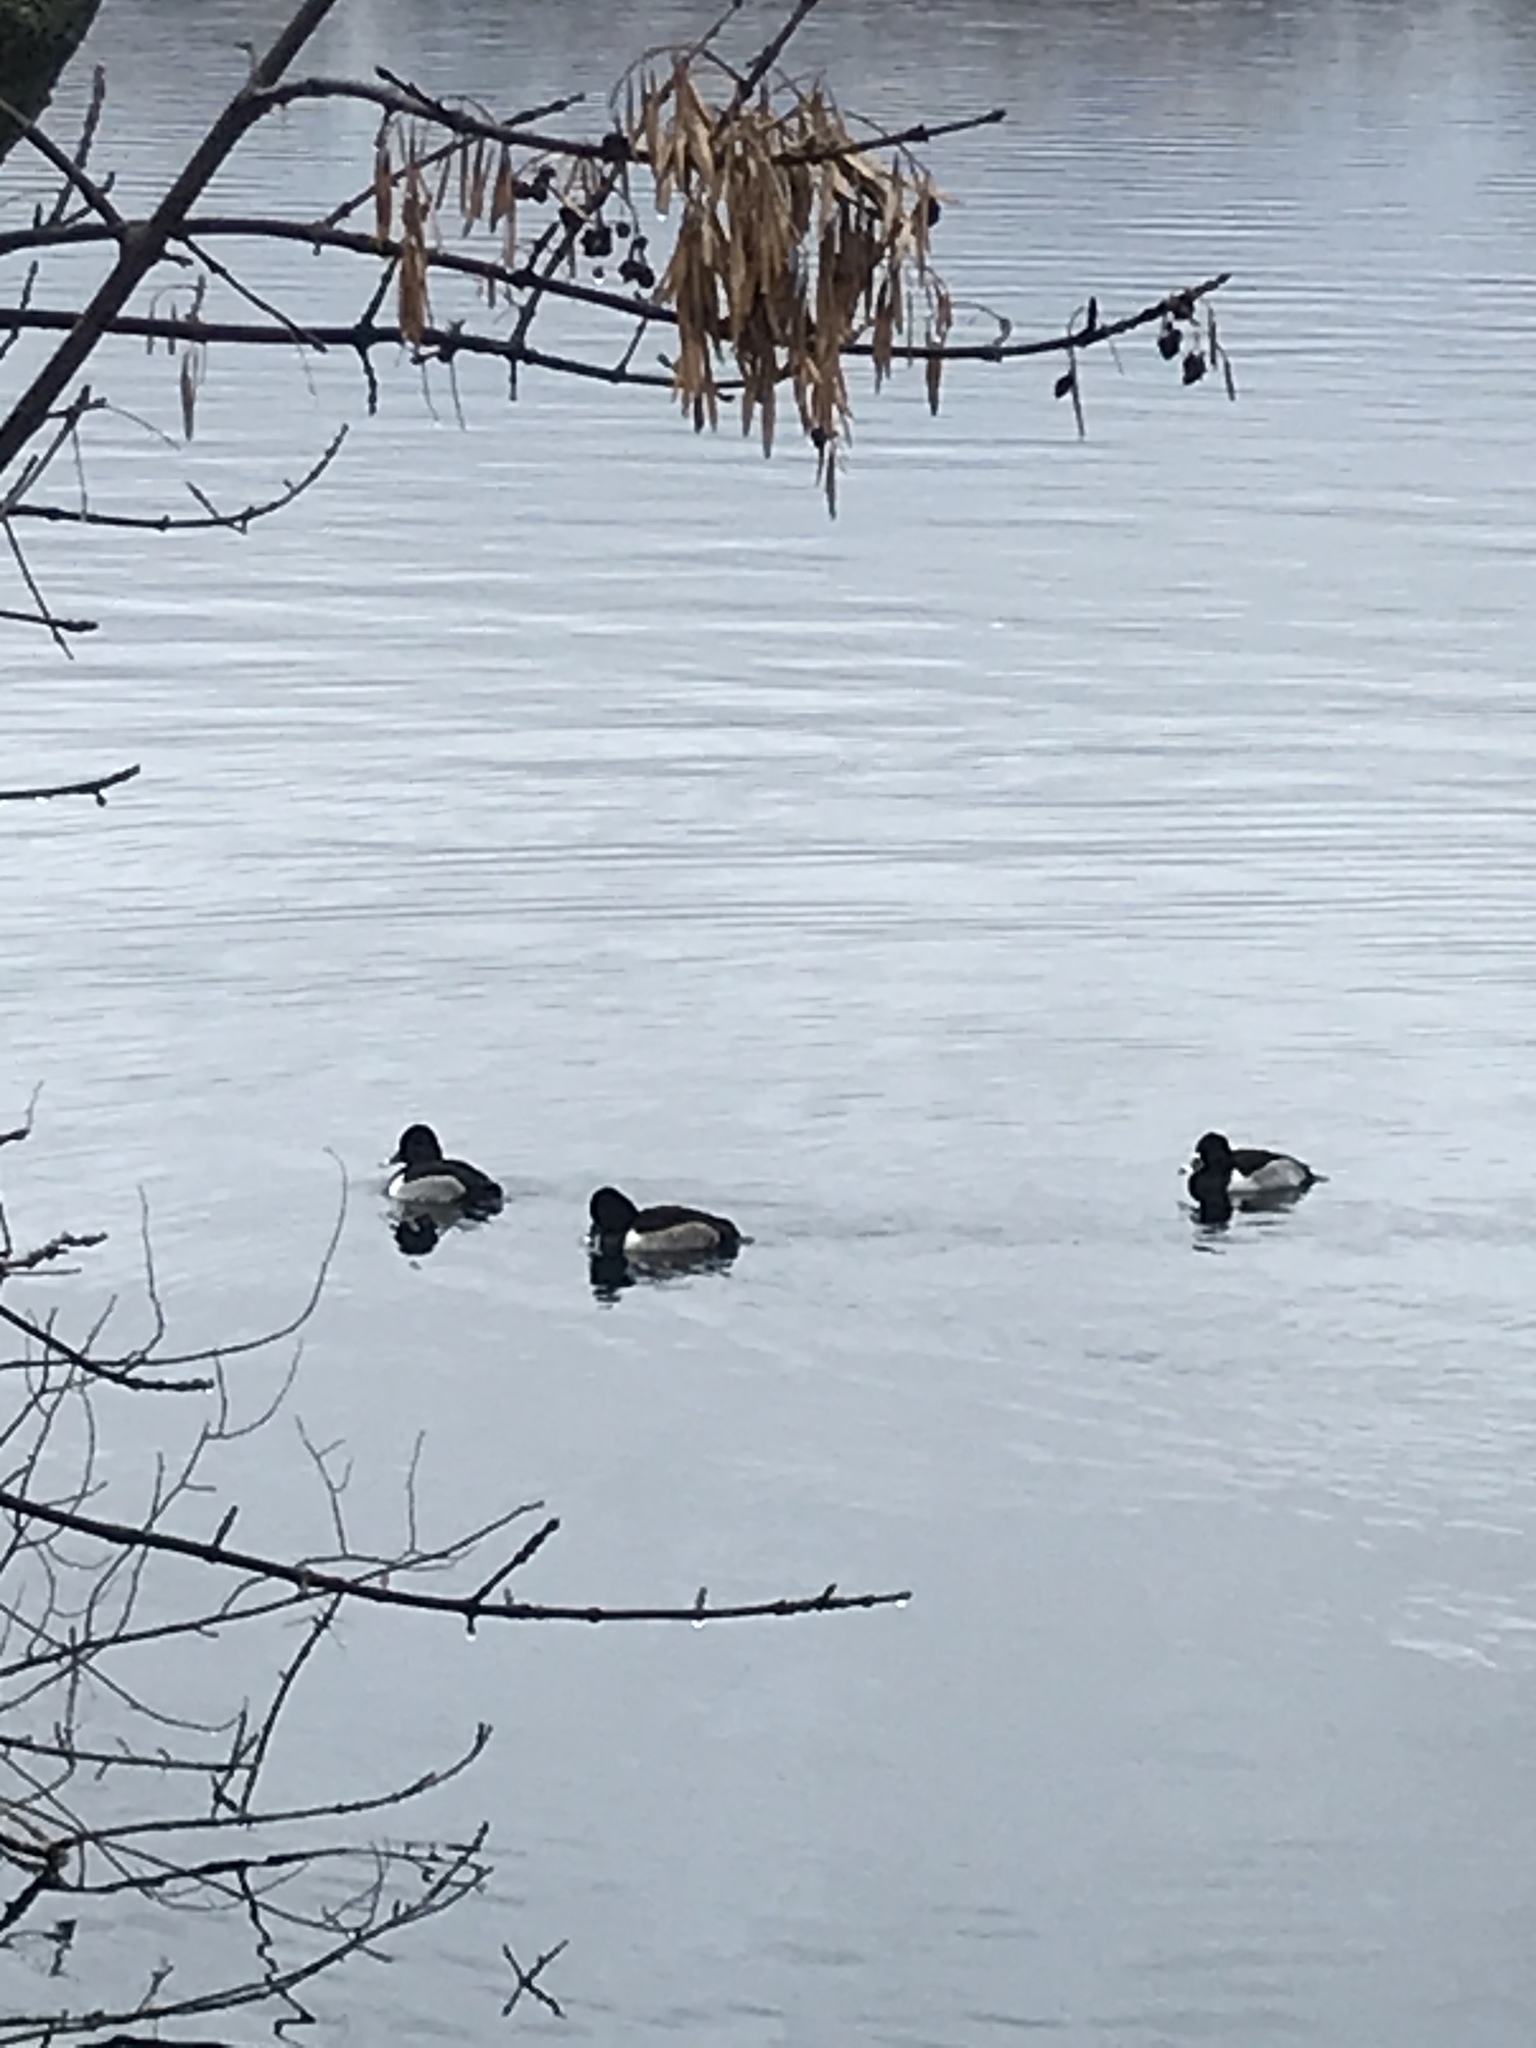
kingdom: Animalia
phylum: Chordata
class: Aves
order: Anseriformes
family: Anatidae
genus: Aythya
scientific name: Aythya collaris
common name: Ring-necked duck
